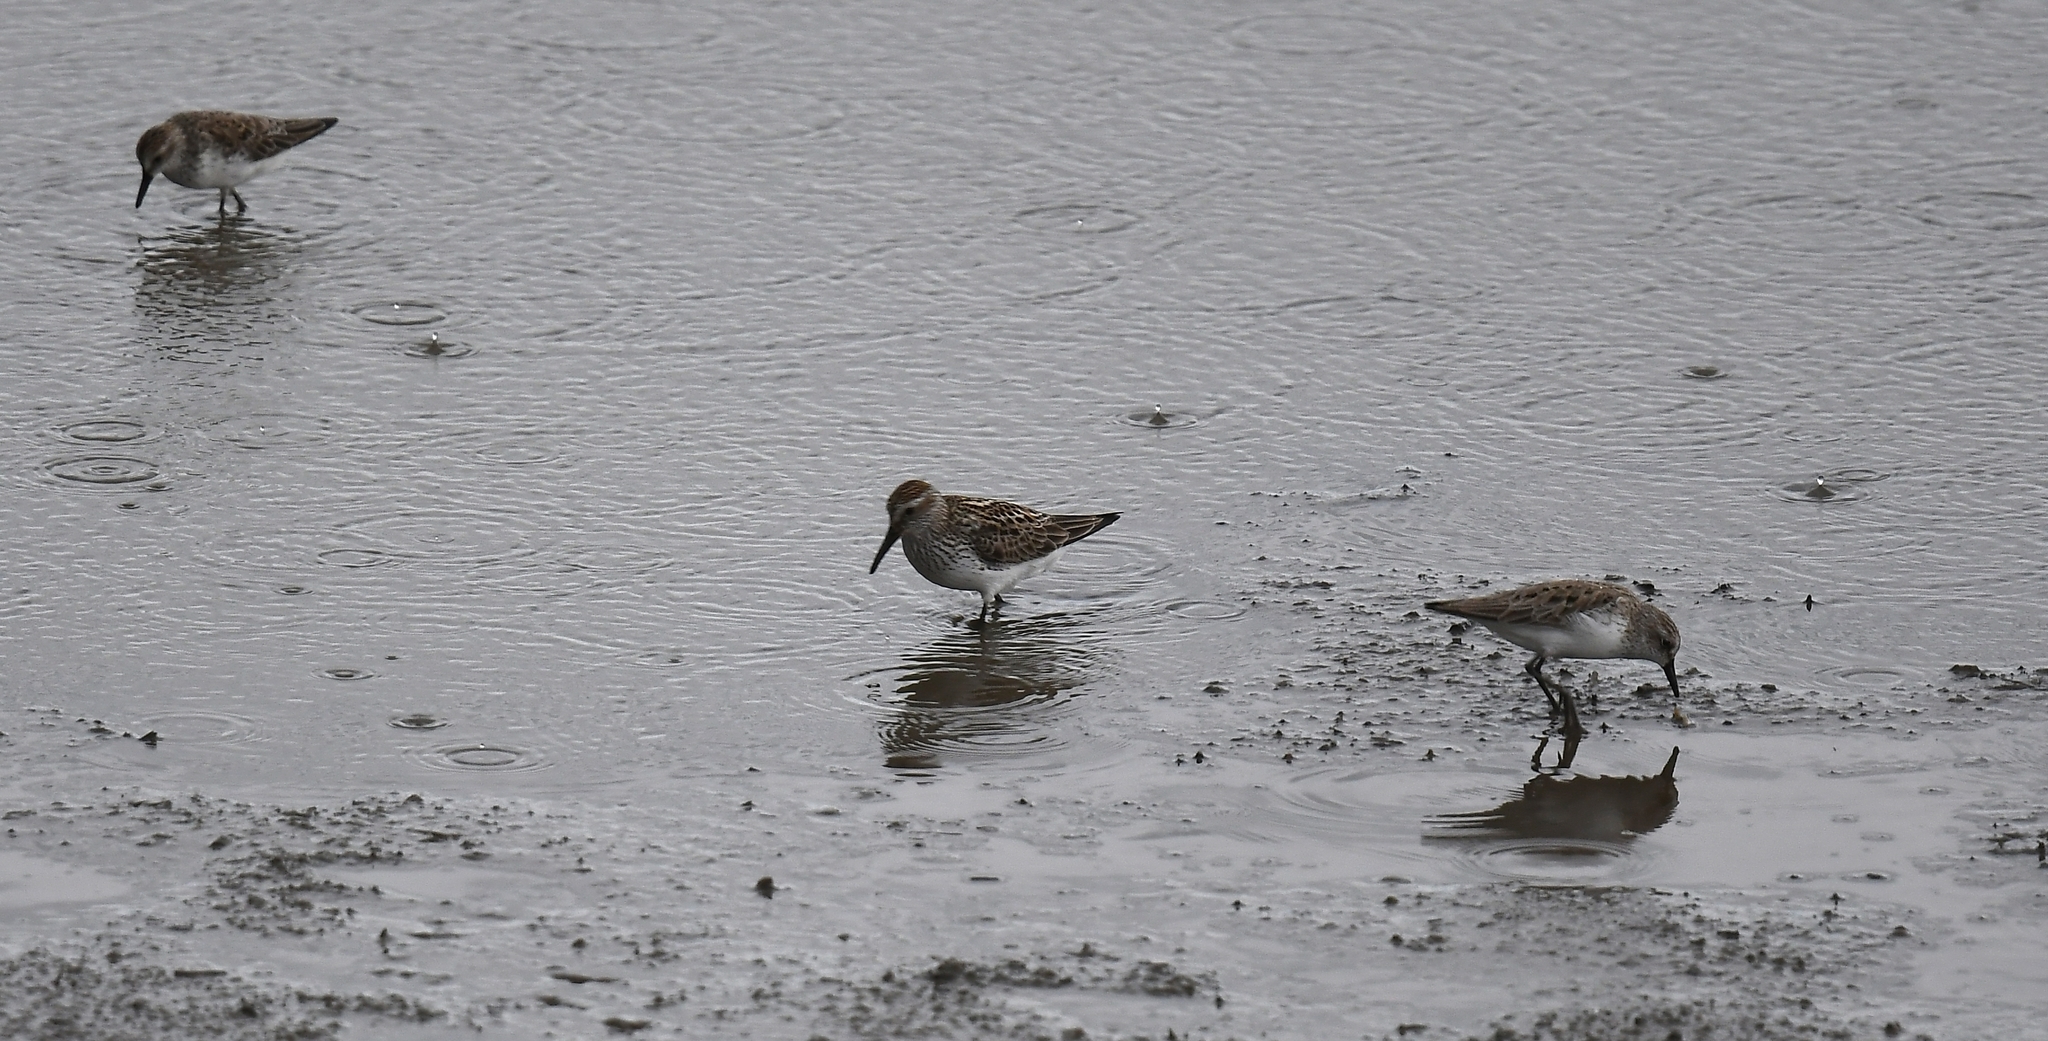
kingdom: Animalia
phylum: Chordata
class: Aves
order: Charadriiformes
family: Scolopacidae
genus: Calidris
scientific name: Calidris fuscicollis
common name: White-rumped sandpiper
